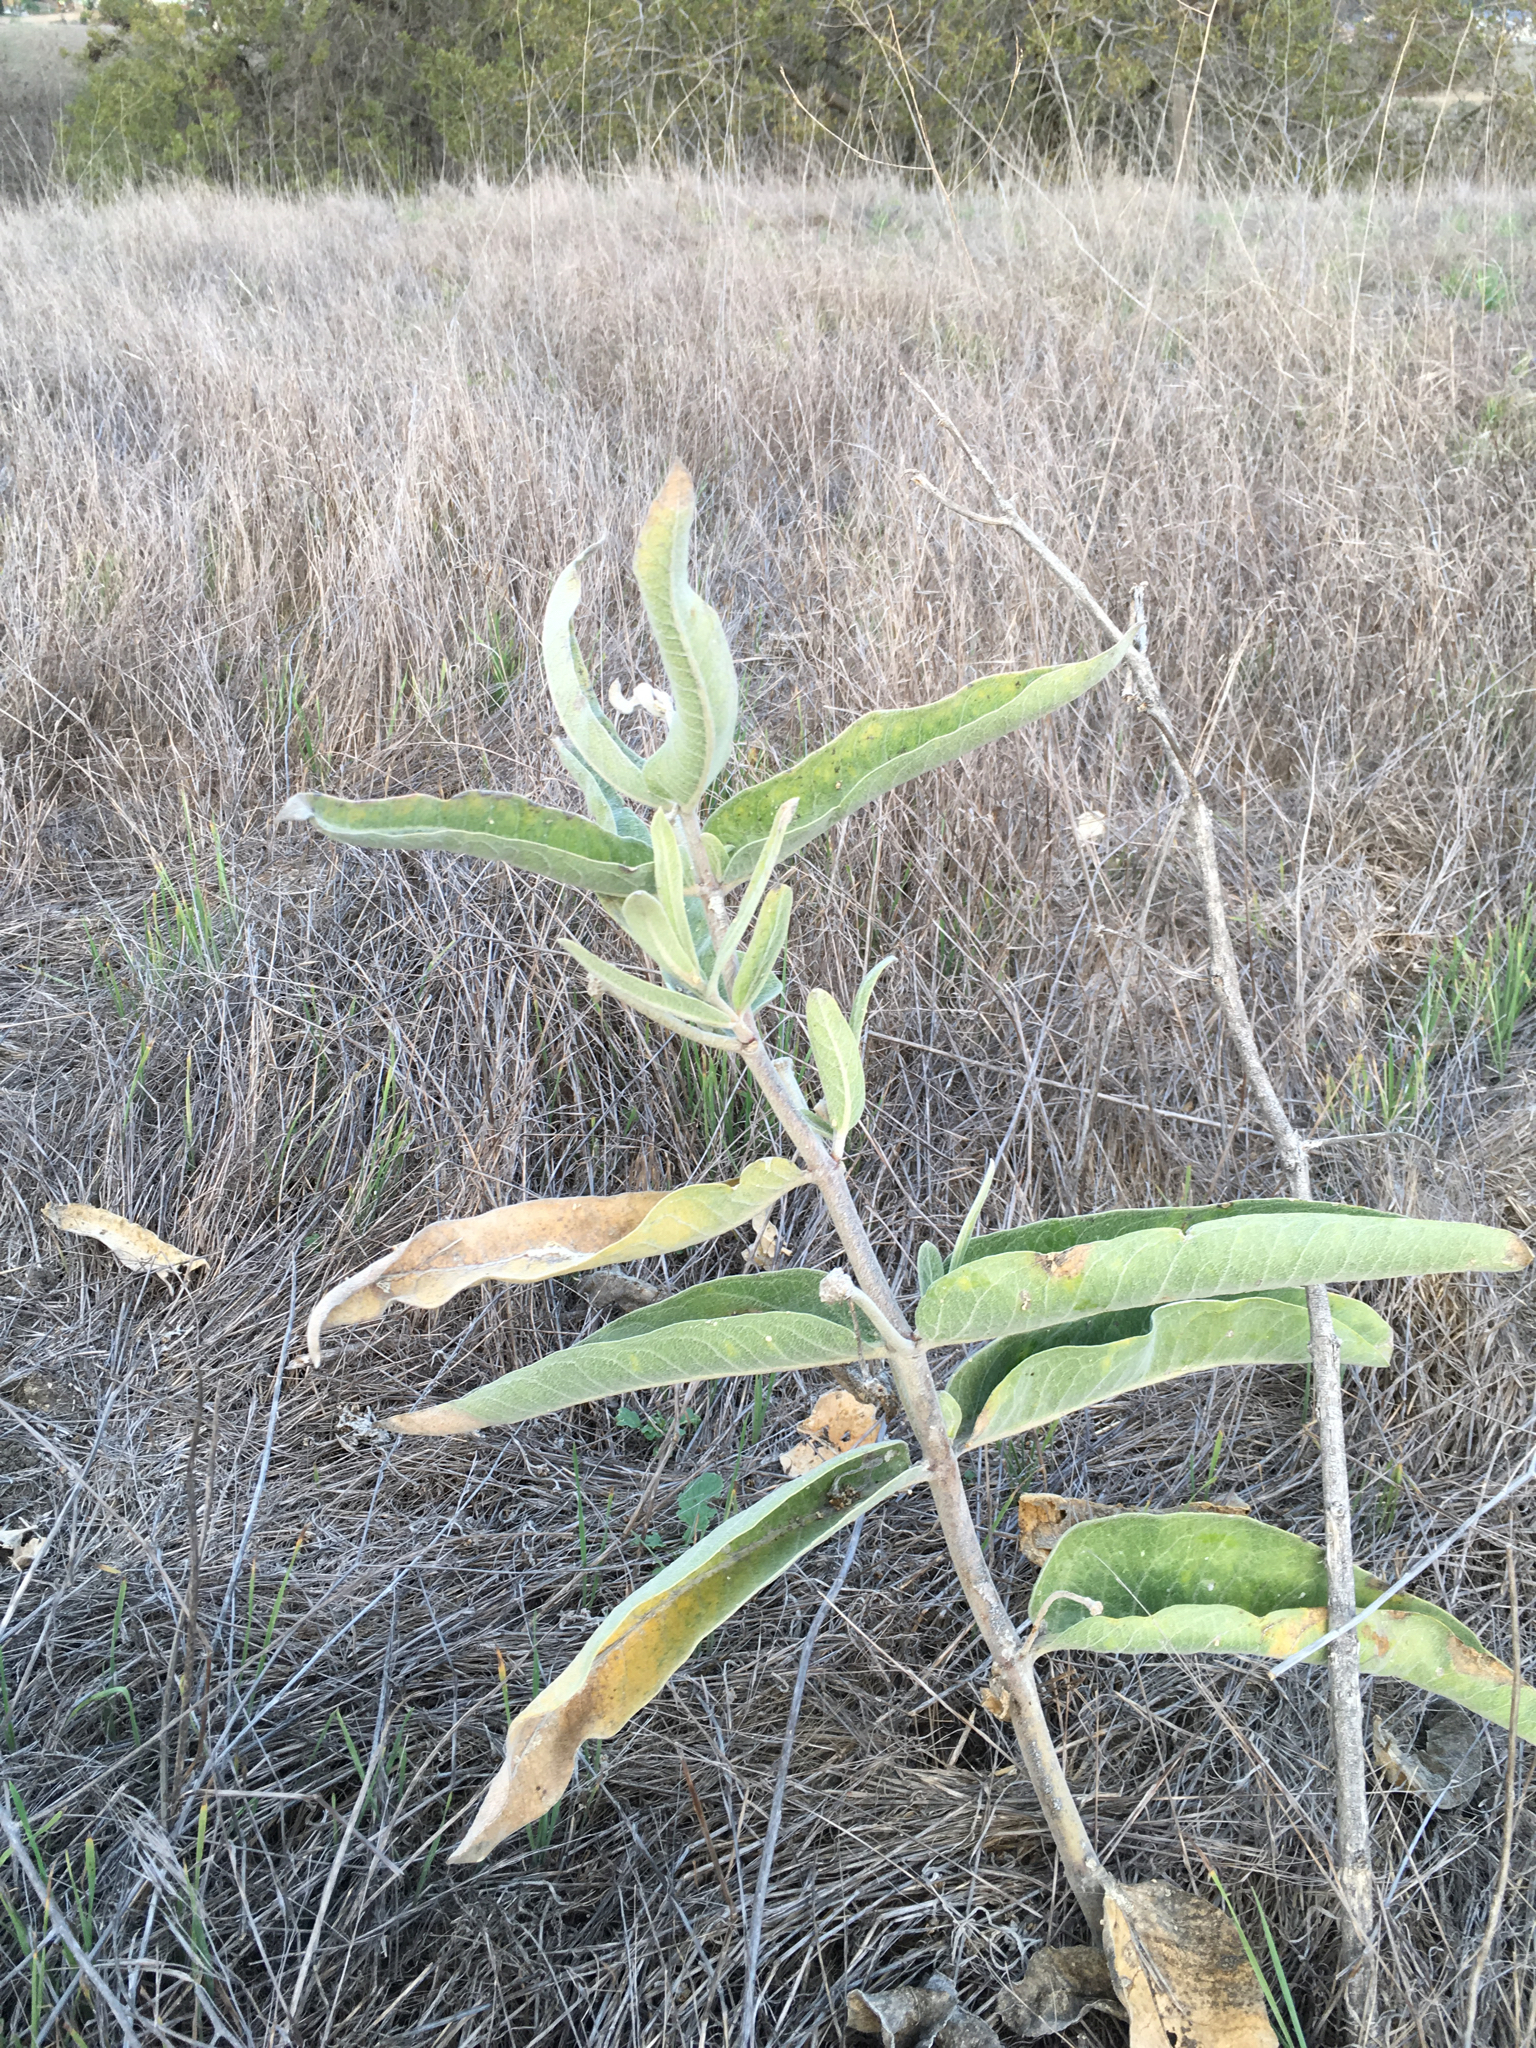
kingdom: Plantae
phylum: Tracheophyta
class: Magnoliopsida
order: Gentianales
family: Apocynaceae
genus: Asclepias
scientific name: Asclepias eriocarpa
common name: Indian milkweed
